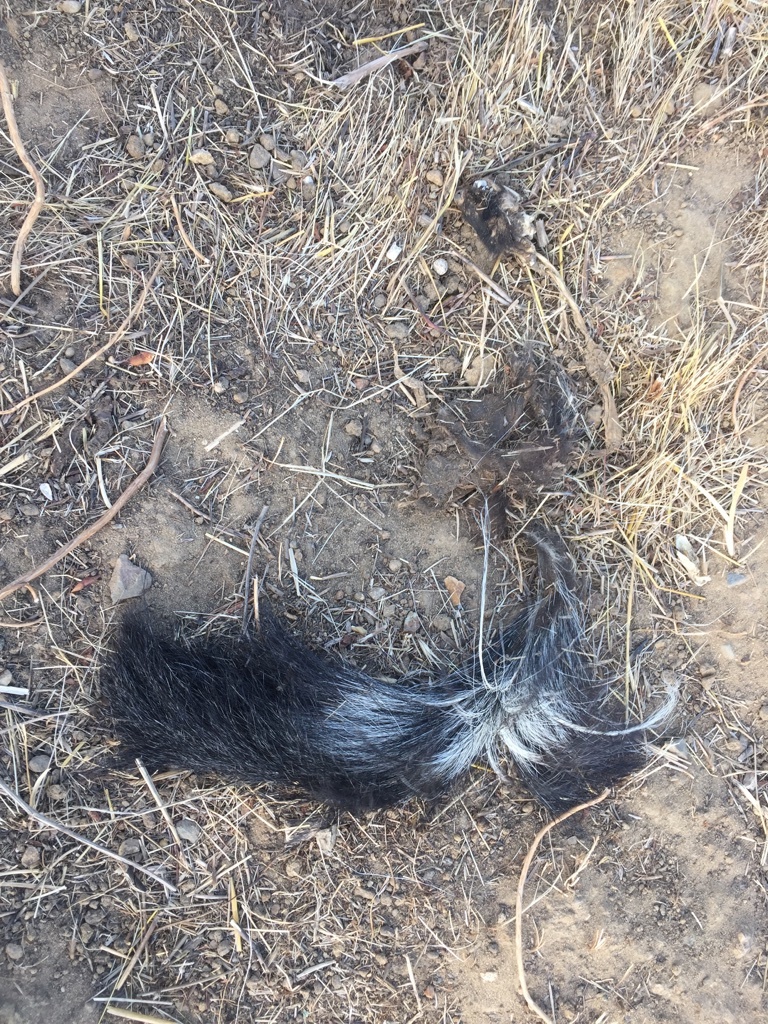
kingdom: Animalia
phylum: Chordata
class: Mammalia
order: Carnivora
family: Mephitidae
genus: Mephitis
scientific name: Mephitis mephitis
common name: Striped skunk
